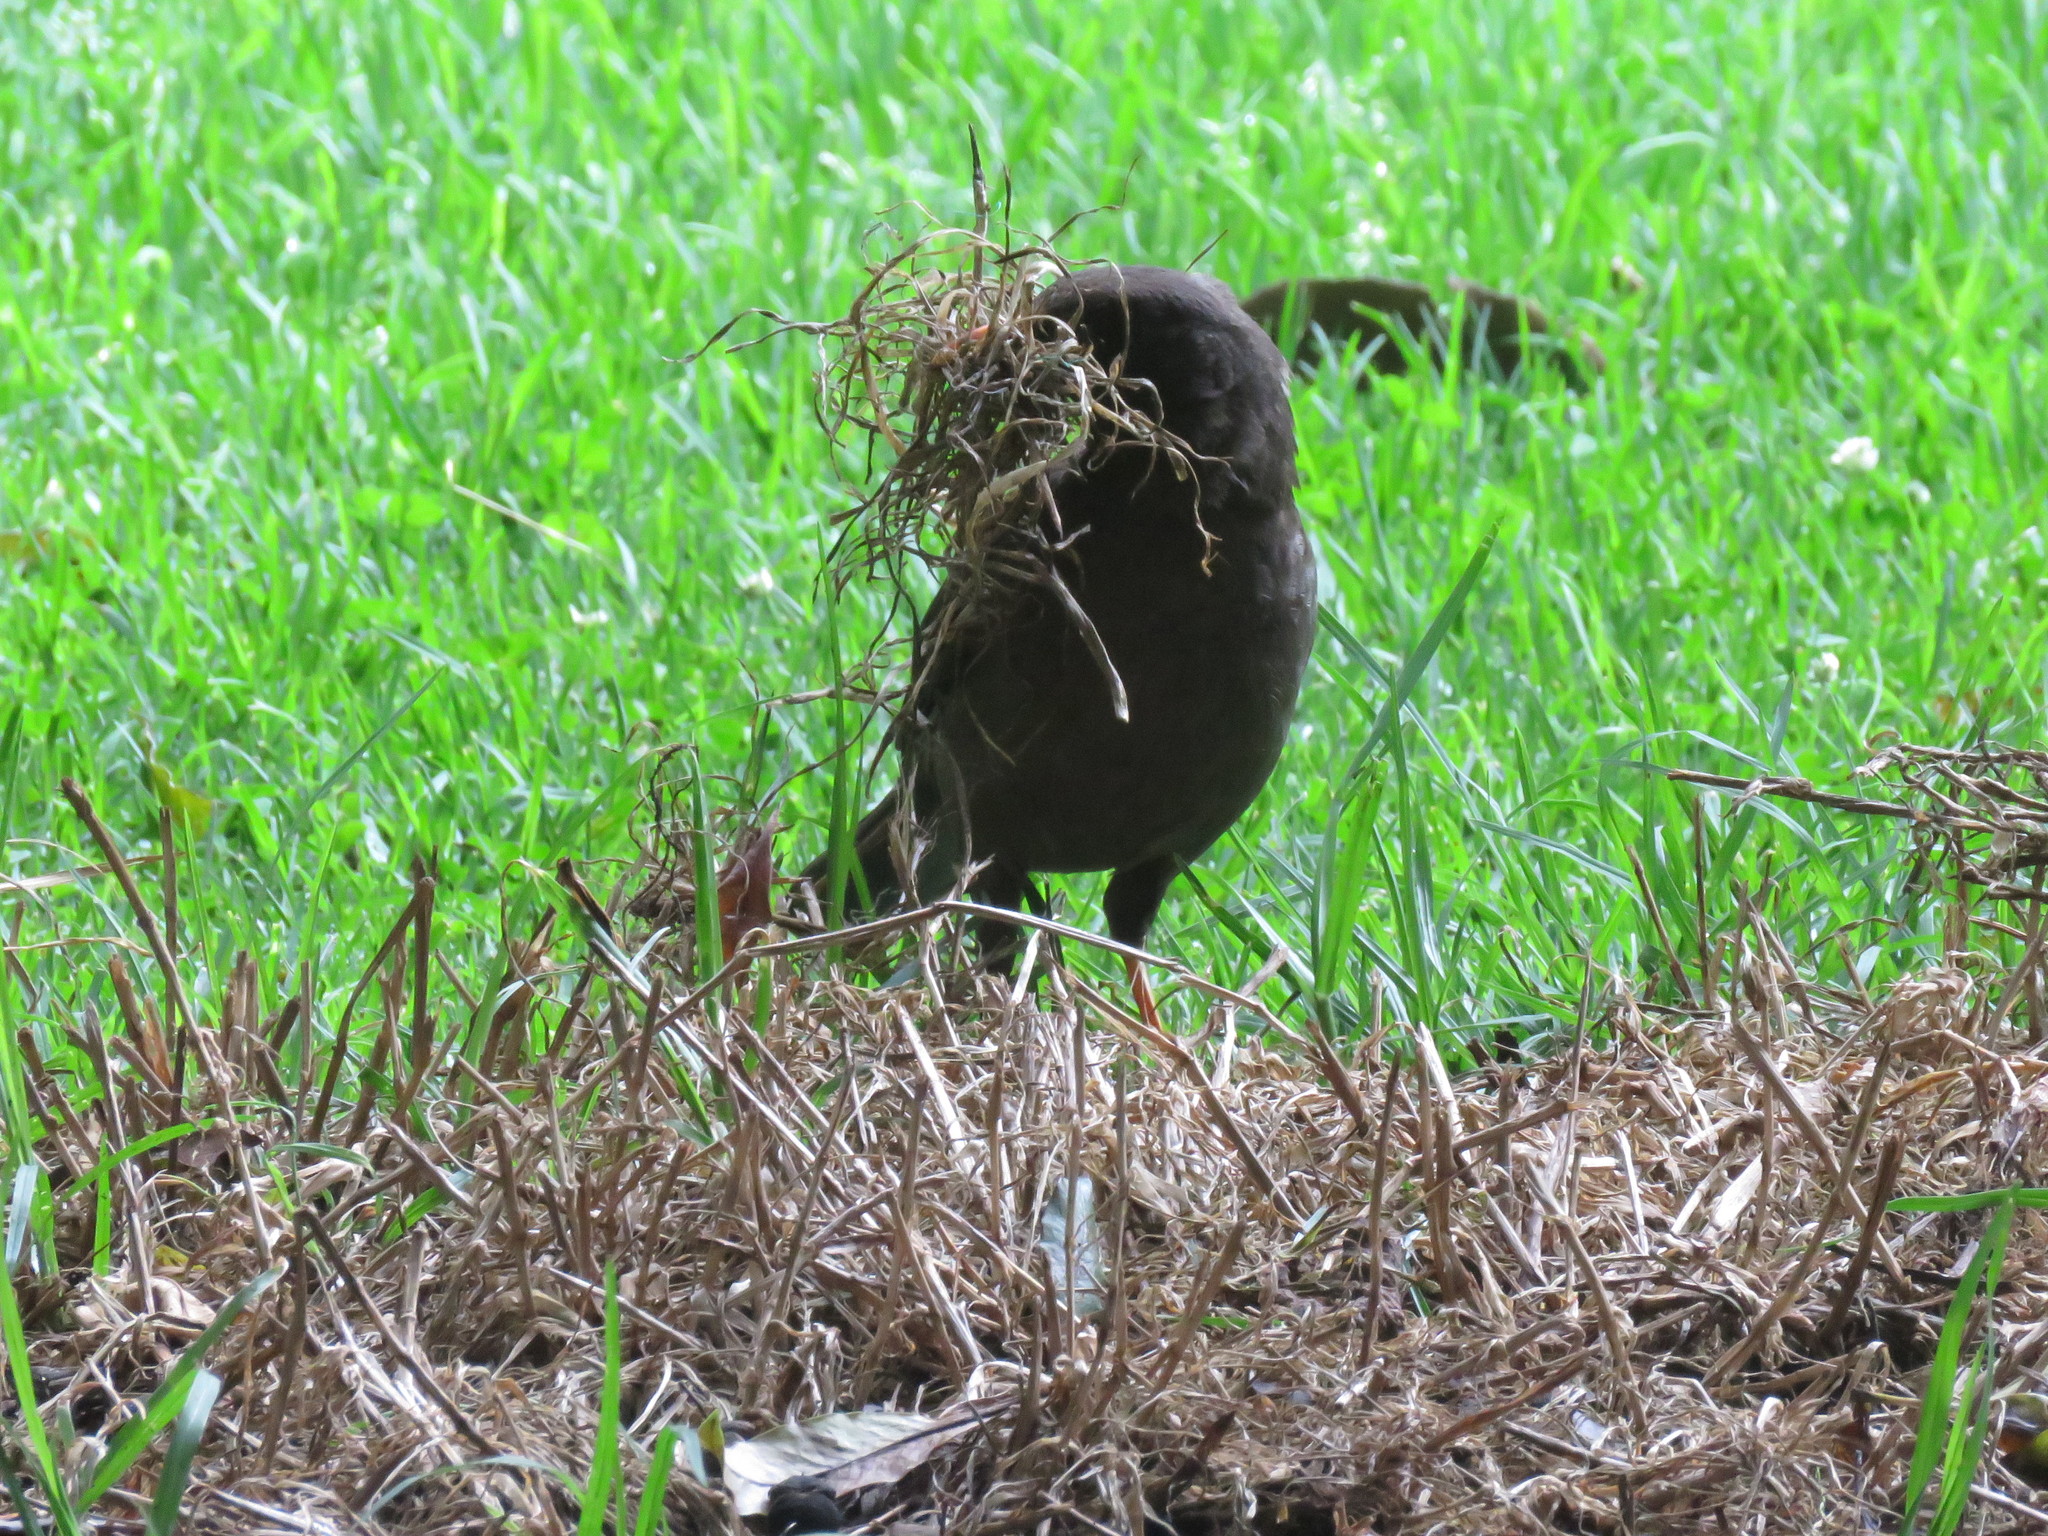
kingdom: Animalia
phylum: Chordata
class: Aves
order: Passeriformes
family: Turdidae
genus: Turdus
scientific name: Turdus fuscater
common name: Great thrush
